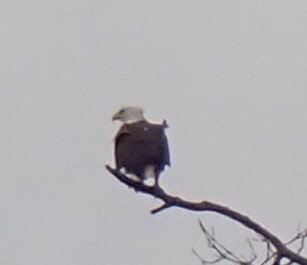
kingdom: Animalia
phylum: Chordata
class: Aves
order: Accipitriformes
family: Accipitridae
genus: Haliaeetus
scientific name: Haliaeetus leucocephalus
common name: Bald eagle
